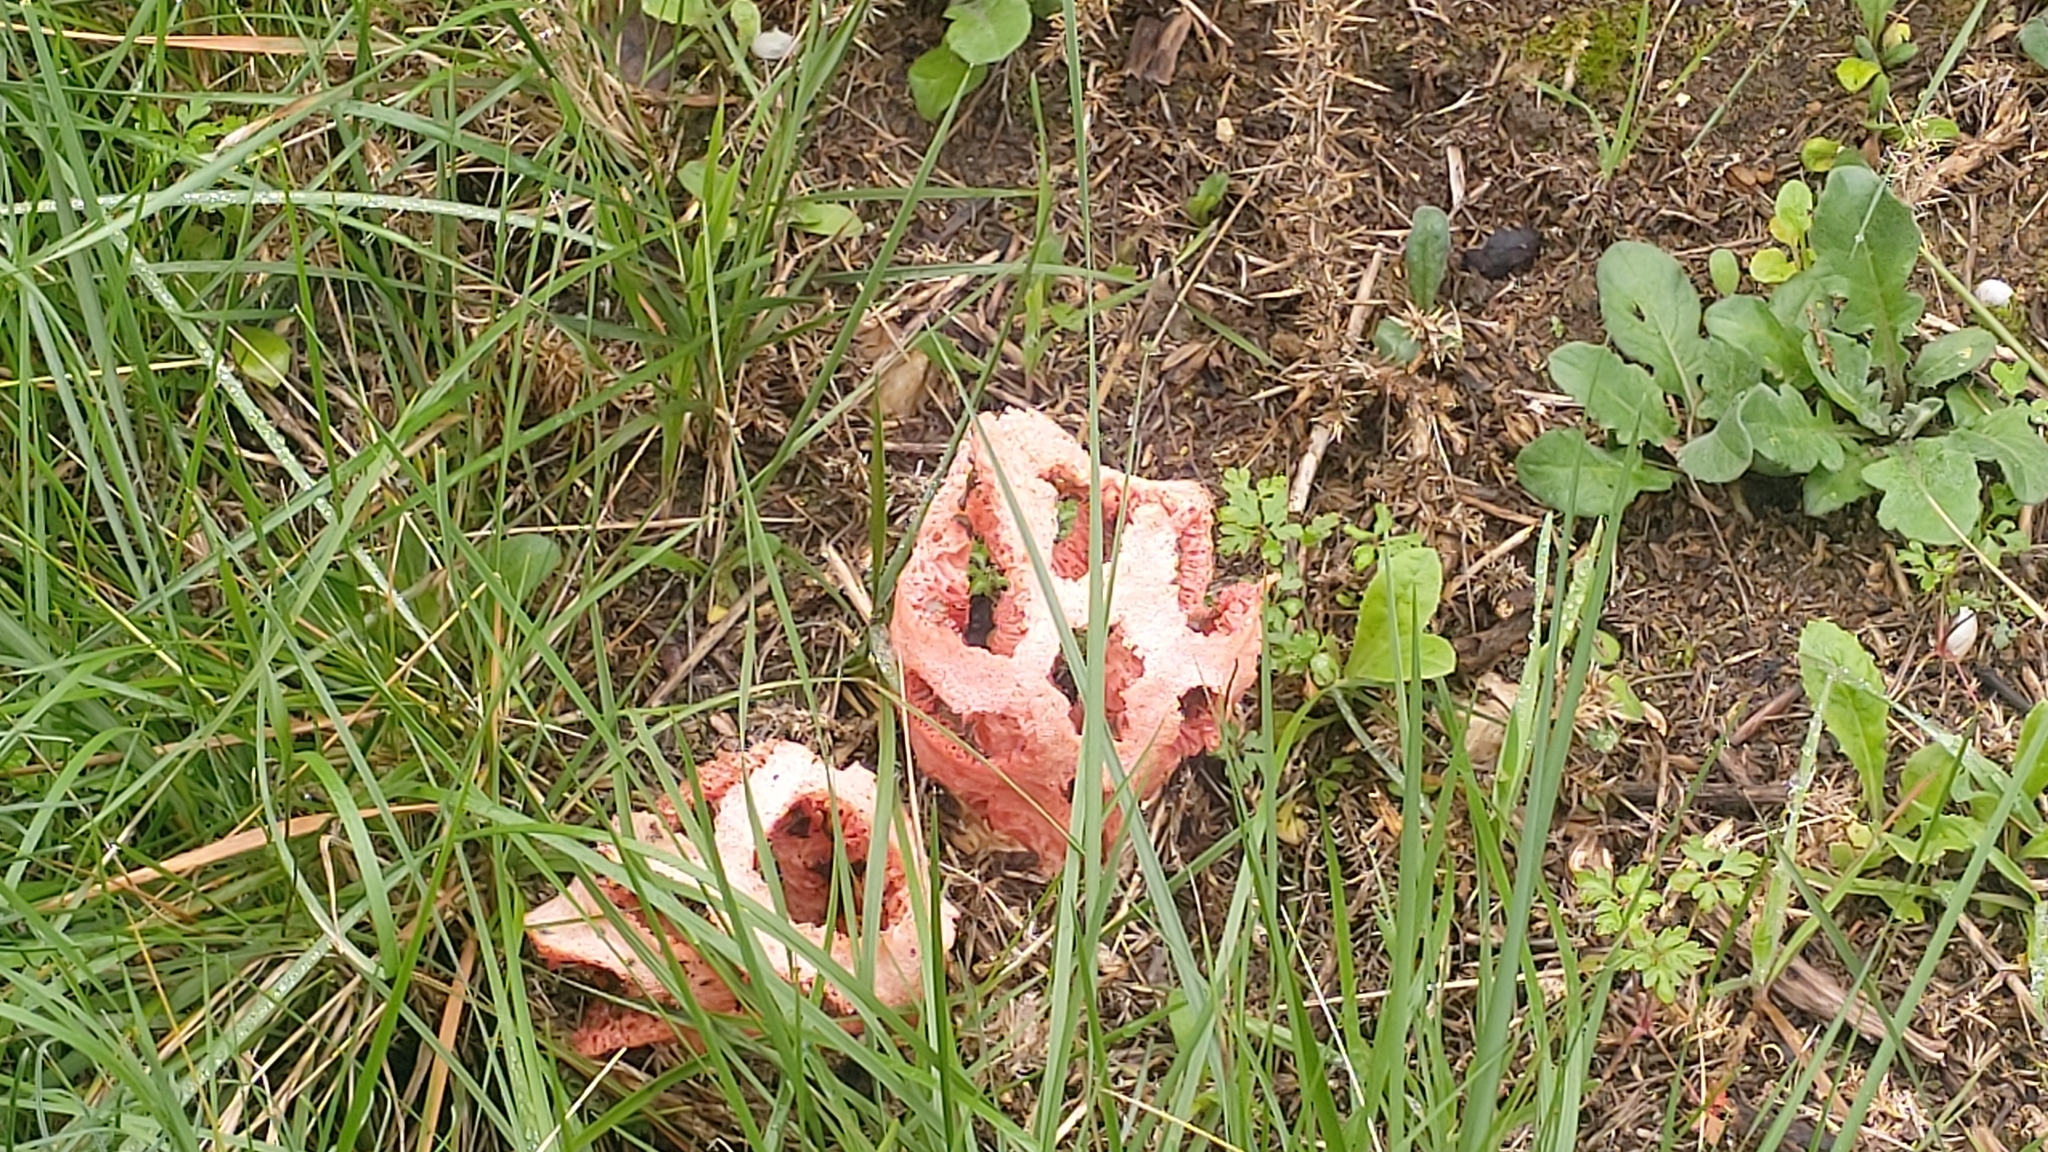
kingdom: Fungi
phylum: Basidiomycota
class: Agaricomycetes
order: Phallales
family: Phallaceae
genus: Clathrus
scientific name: Clathrus ruber
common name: Red cage
